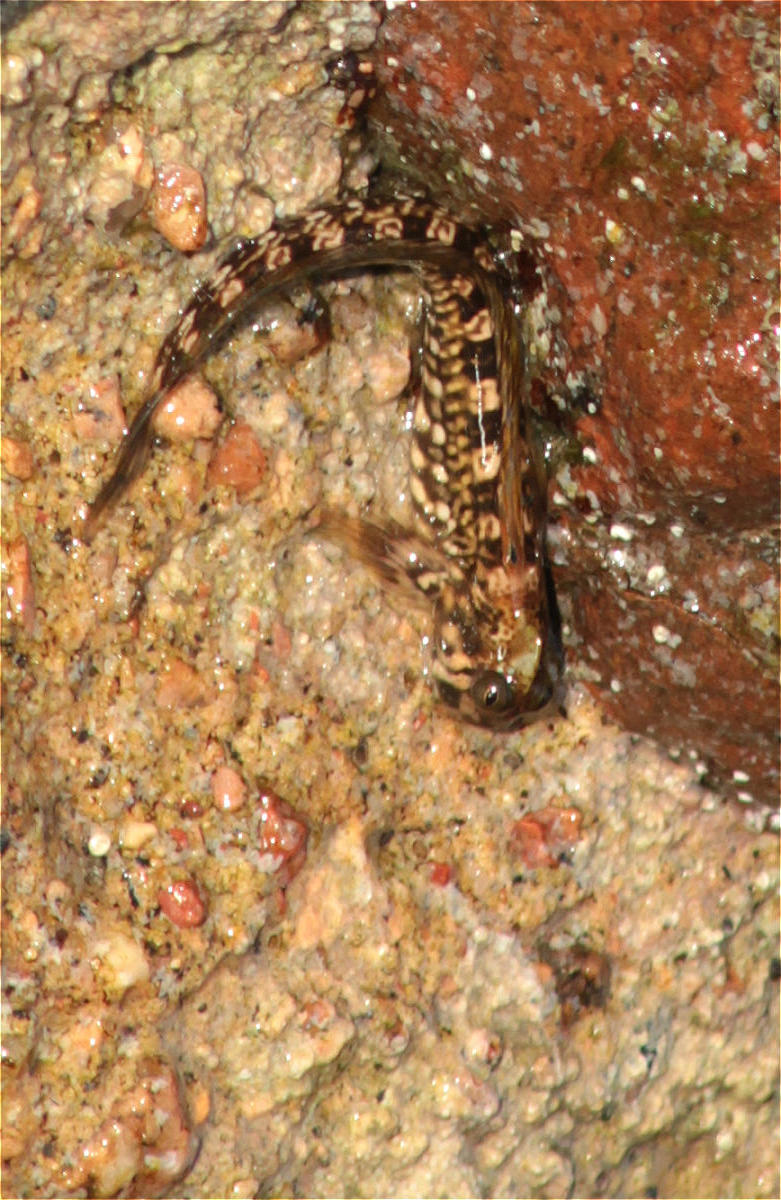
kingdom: Animalia
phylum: Chordata
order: Perciformes
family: Blenniidae
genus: Alticus
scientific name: Alticus magnusi
